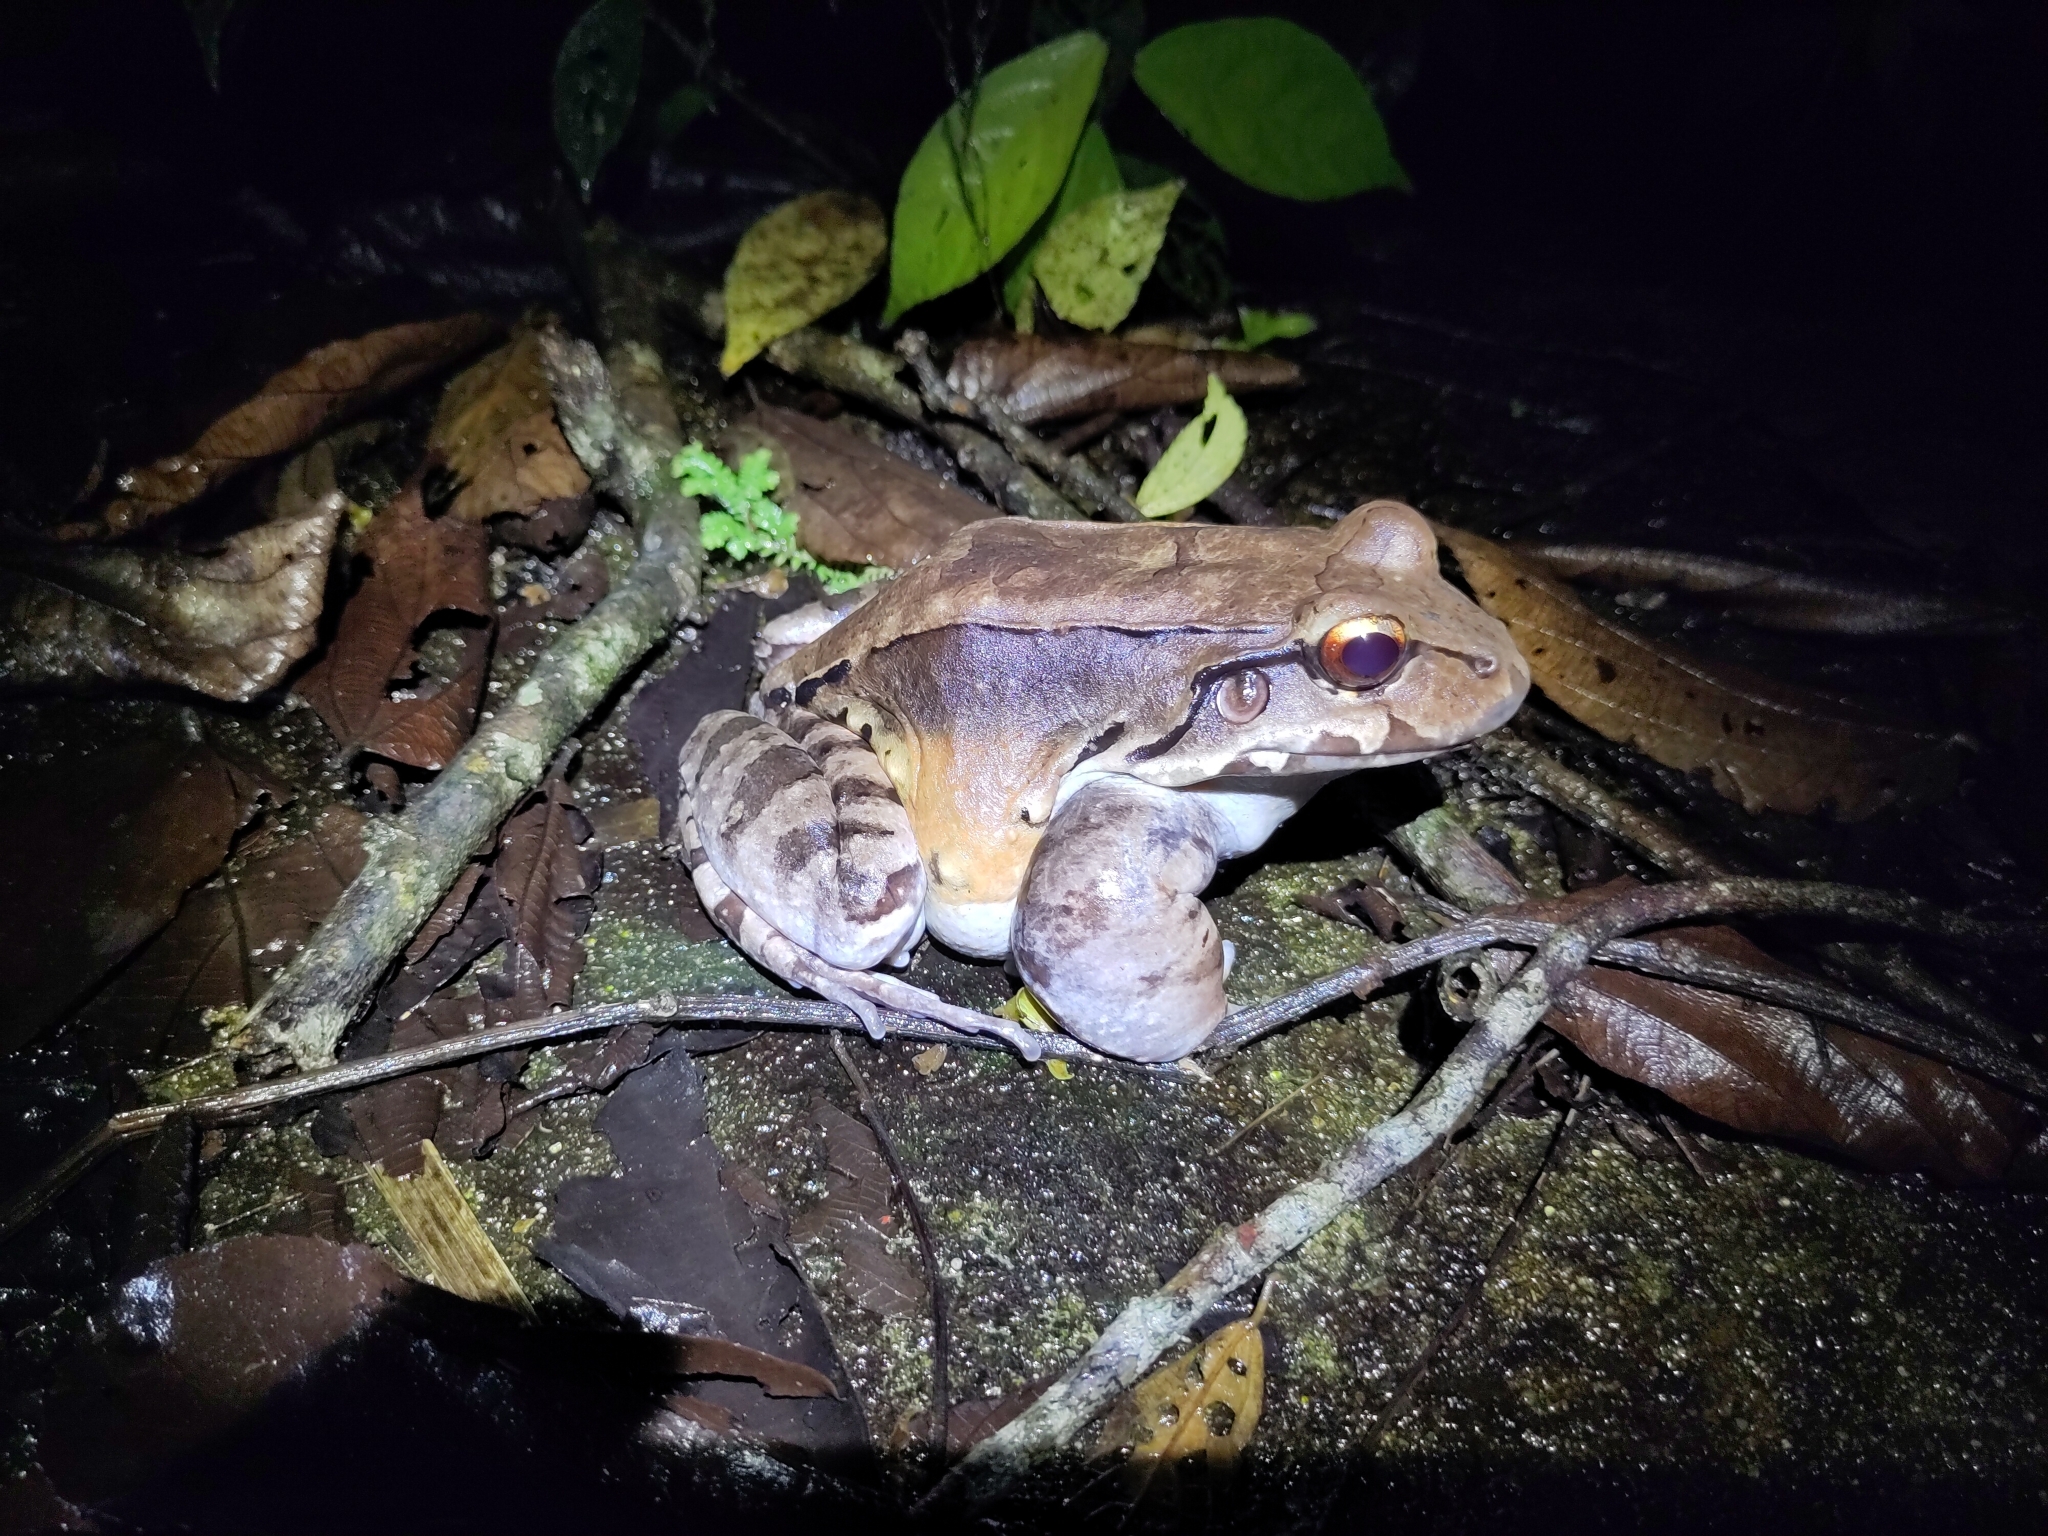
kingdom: Animalia
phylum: Chordata
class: Amphibia
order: Anura
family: Leptodactylidae
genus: Leptodactylus
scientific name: Leptodactylus savagei
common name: Savage's thin-toed frog
